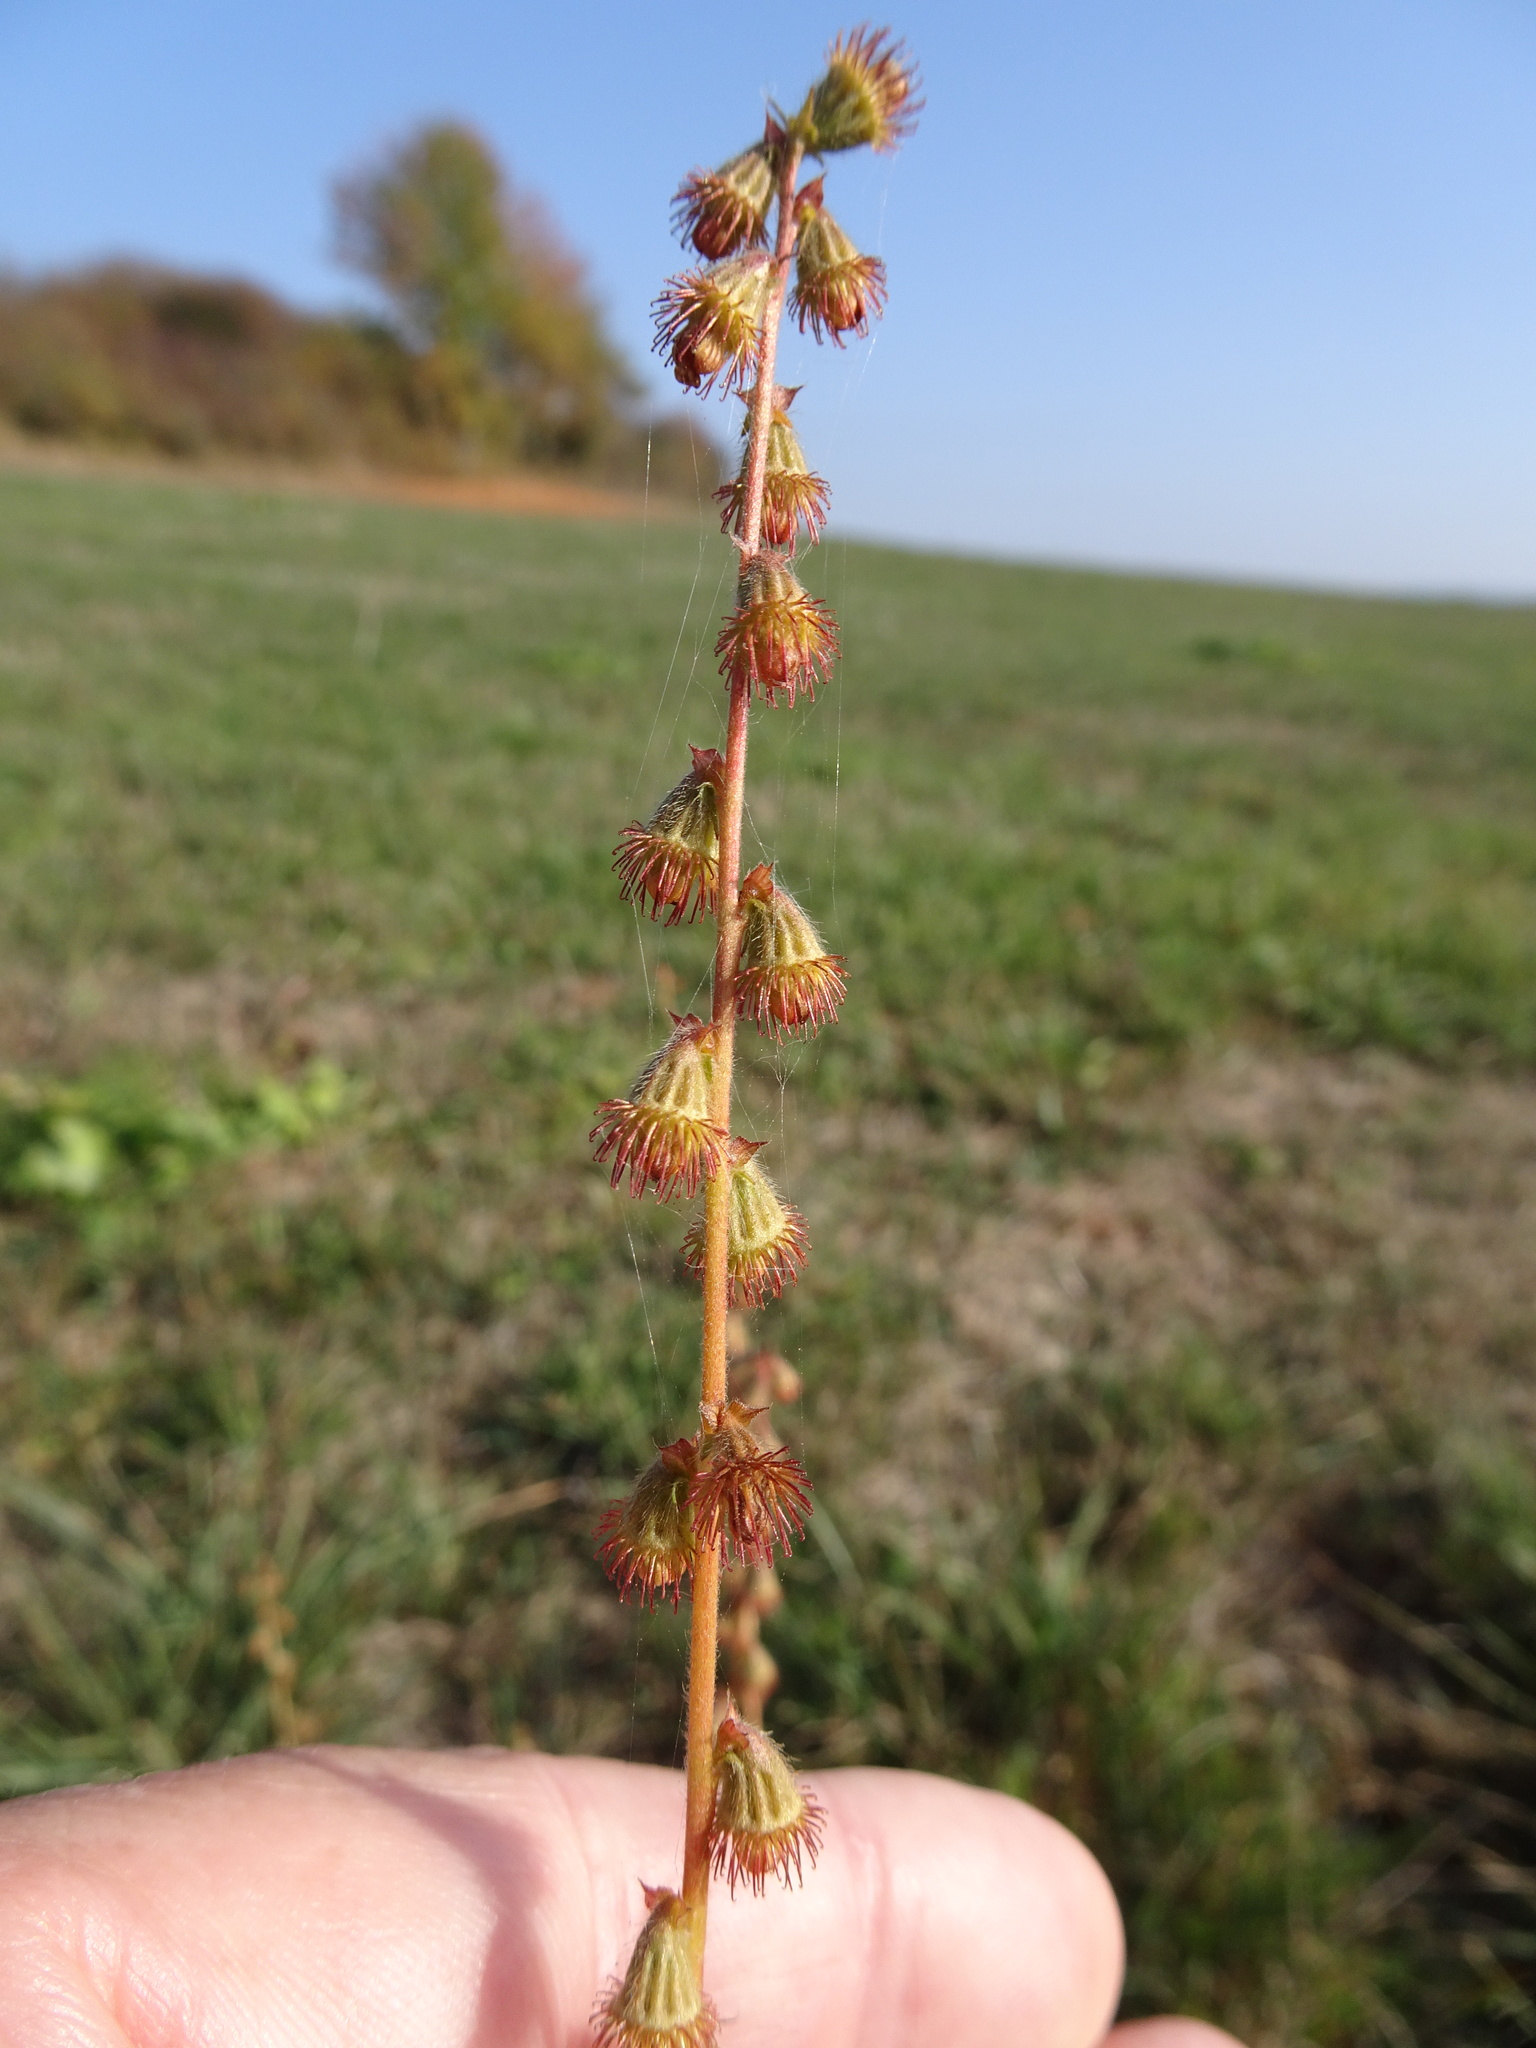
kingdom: Plantae
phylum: Tracheophyta
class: Magnoliopsida
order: Rosales
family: Rosaceae
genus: Agrimonia
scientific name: Agrimonia eupatoria
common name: Agrimony
